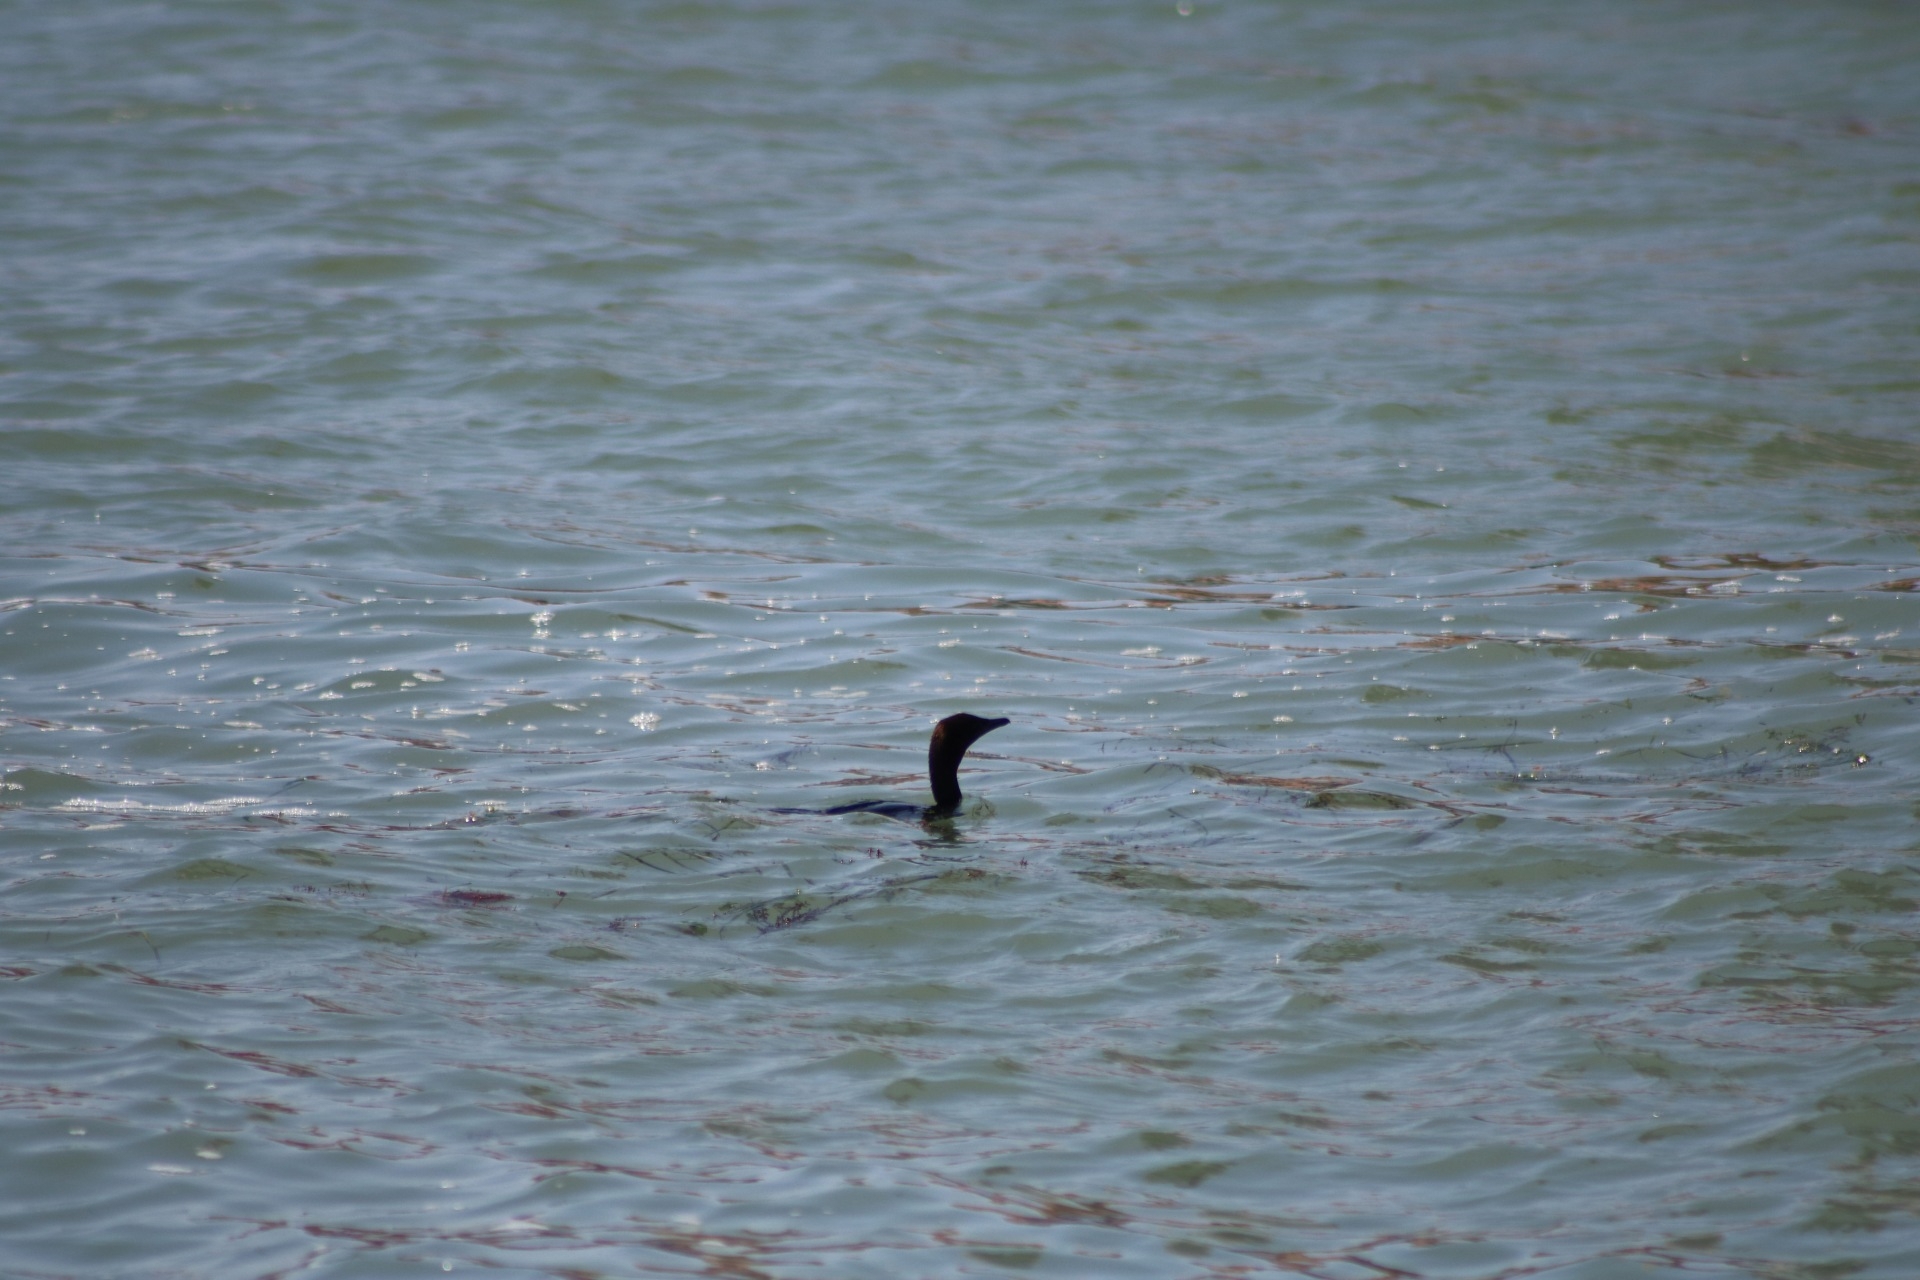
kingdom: Animalia
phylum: Chordata
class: Aves
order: Suliformes
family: Phalacrocoracidae
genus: Microcarbo
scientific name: Microcarbo pygmaeus
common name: Pygmy cormorant
